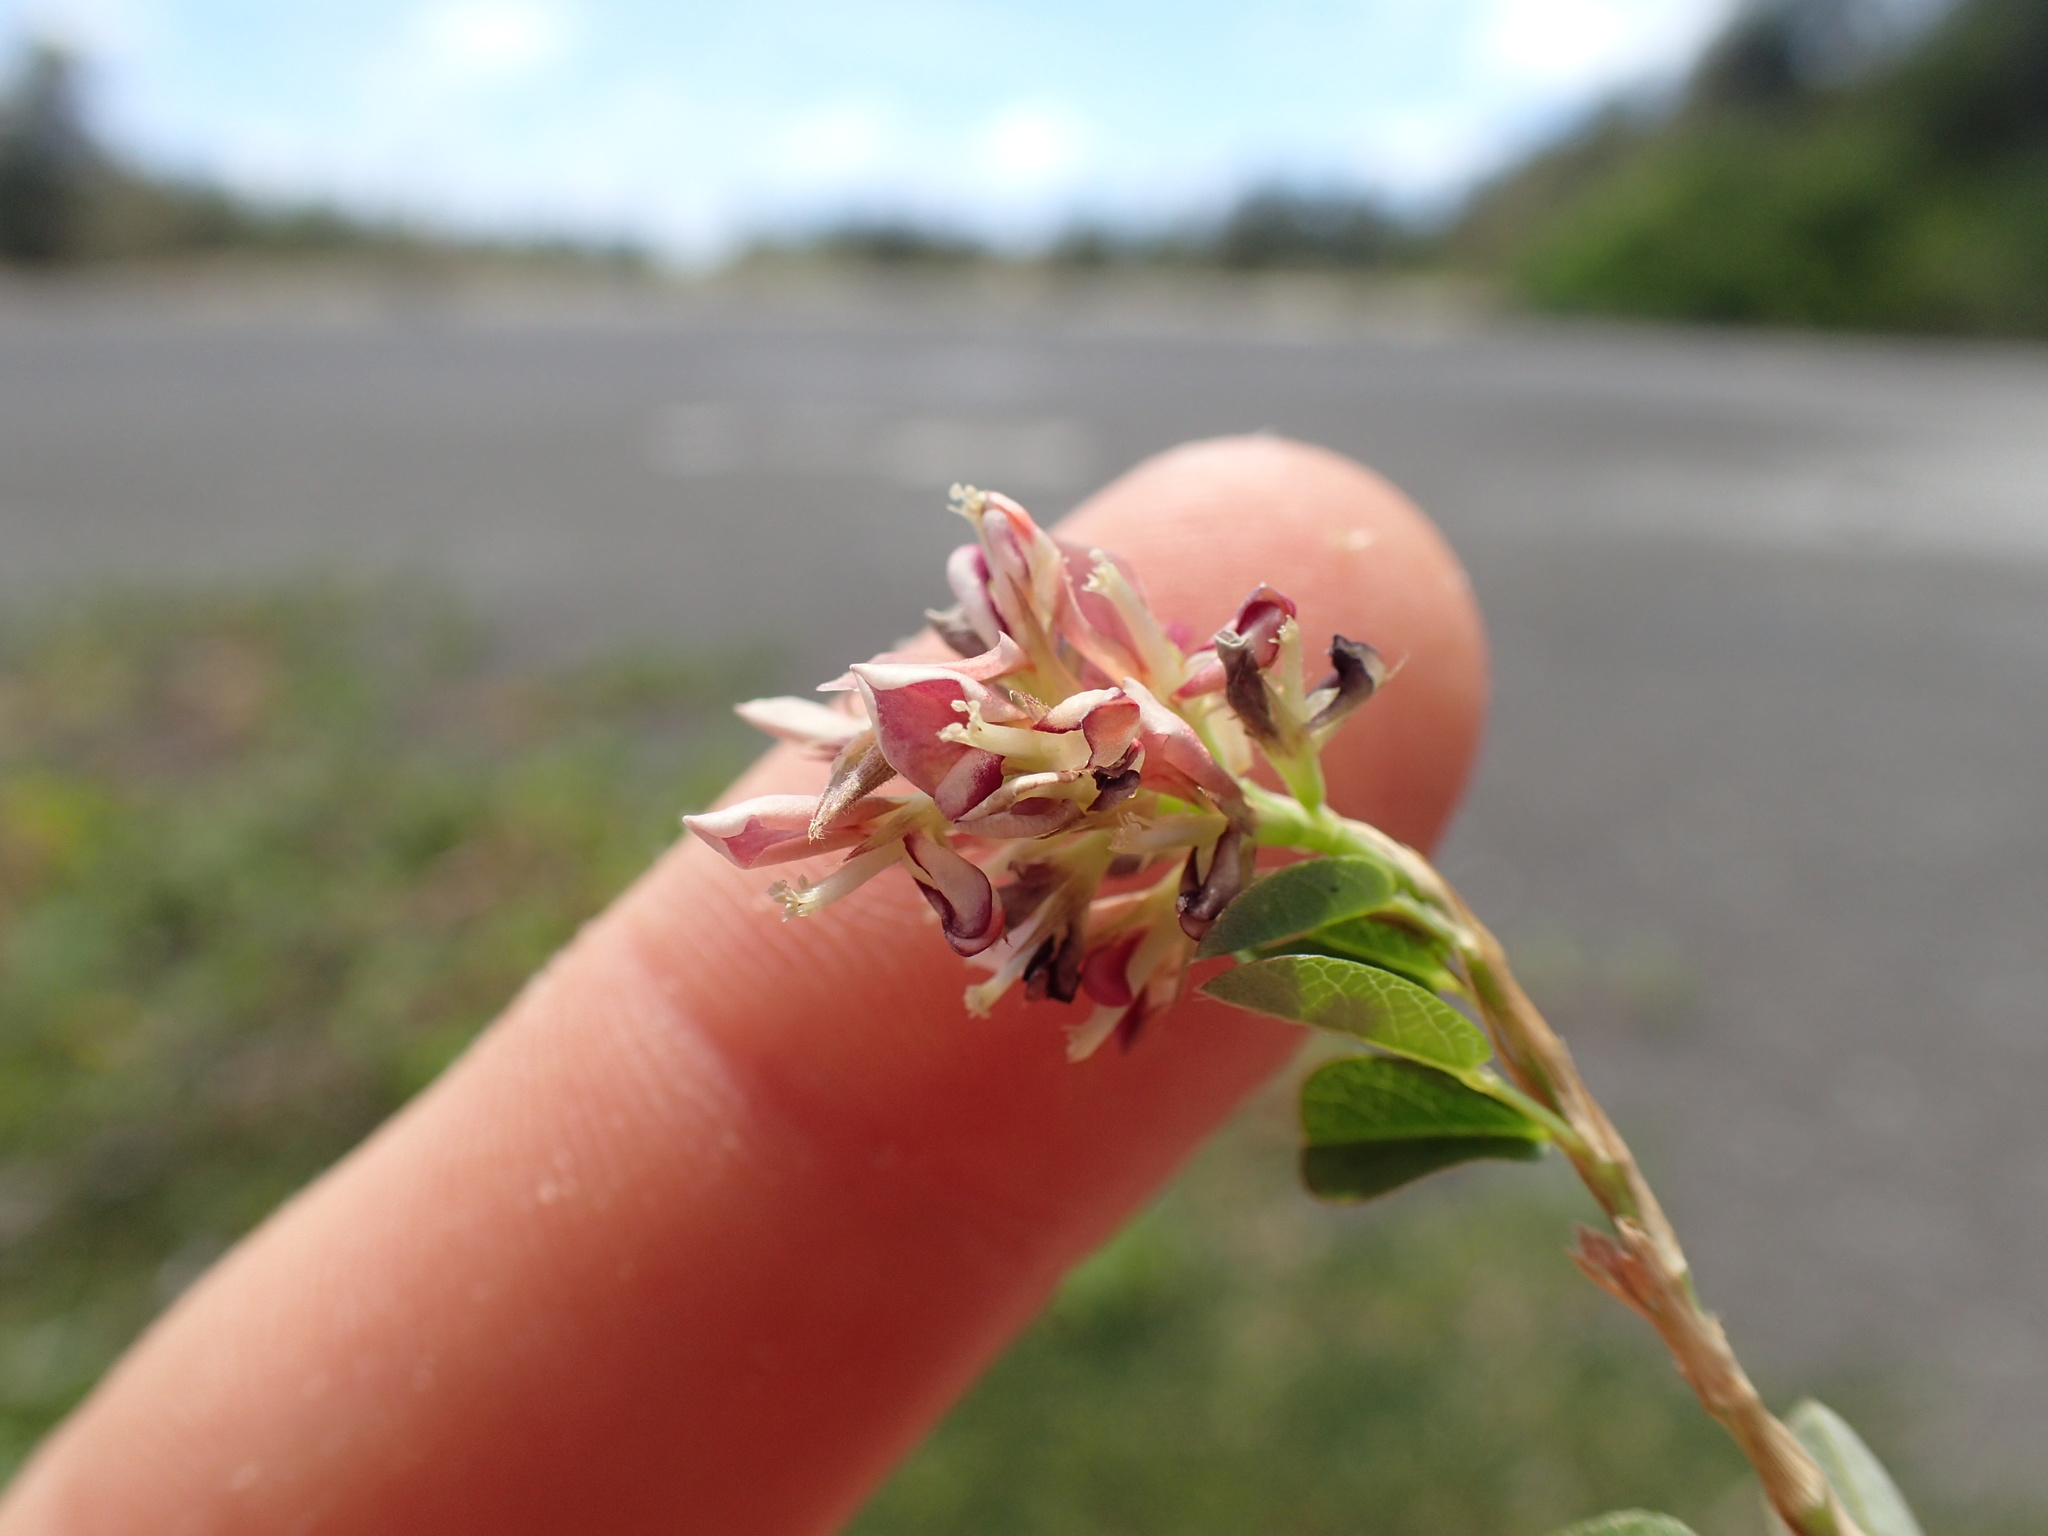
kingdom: Plantae
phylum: Tracheophyta
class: Magnoliopsida
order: Fabales
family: Fabaceae
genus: Alysicarpus
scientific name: Alysicarpus vaginalis
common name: White moneywort
